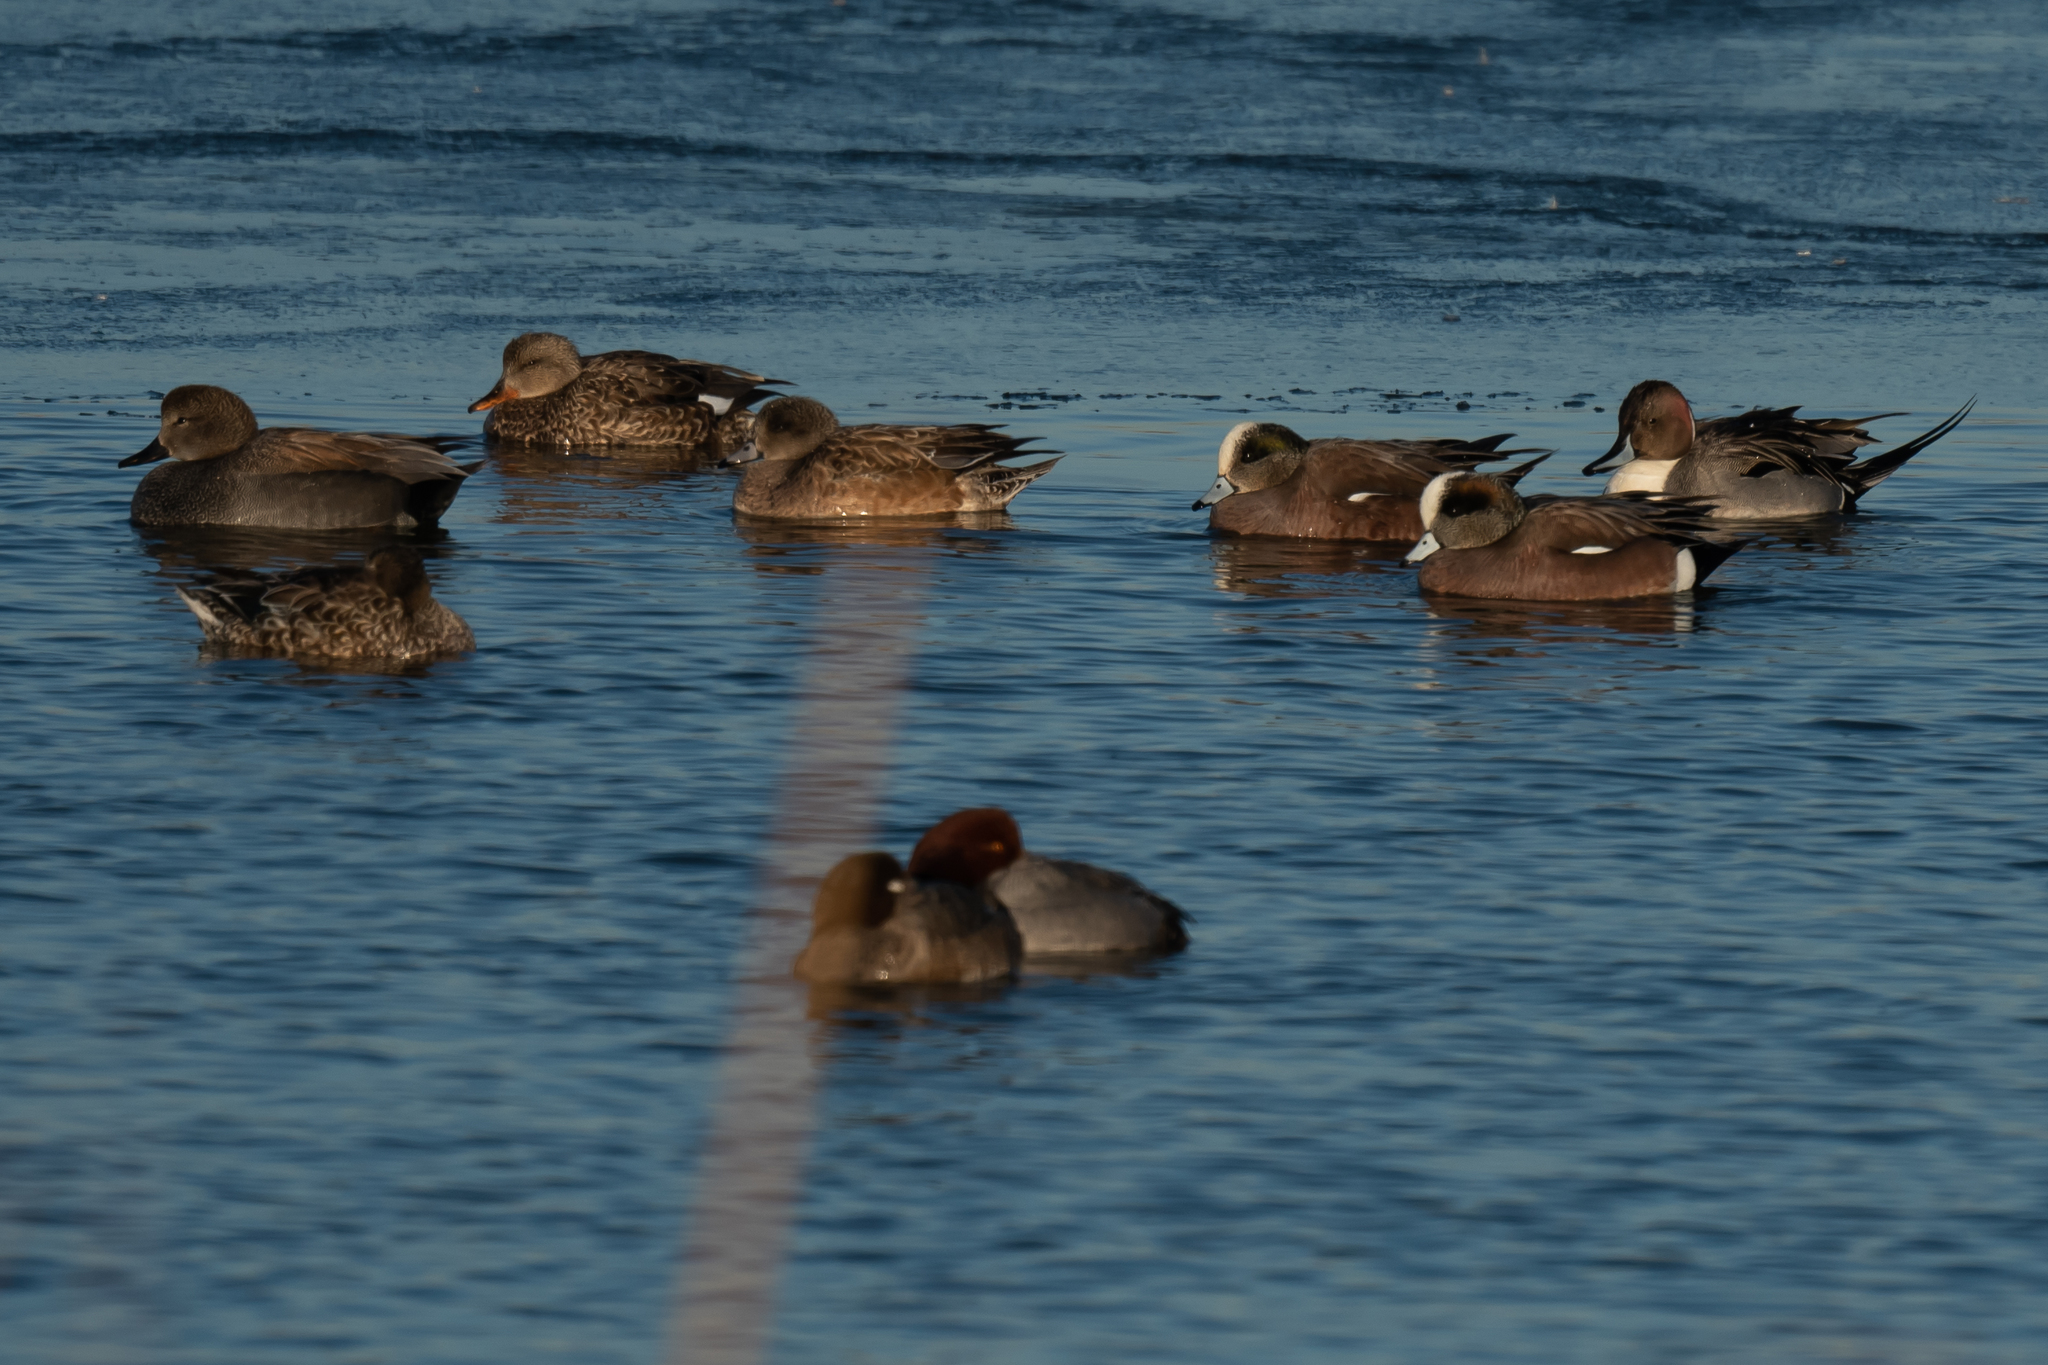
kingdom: Animalia
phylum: Chordata
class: Aves
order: Anseriformes
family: Anatidae
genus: Mareca
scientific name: Mareca americana
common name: American wigeon
